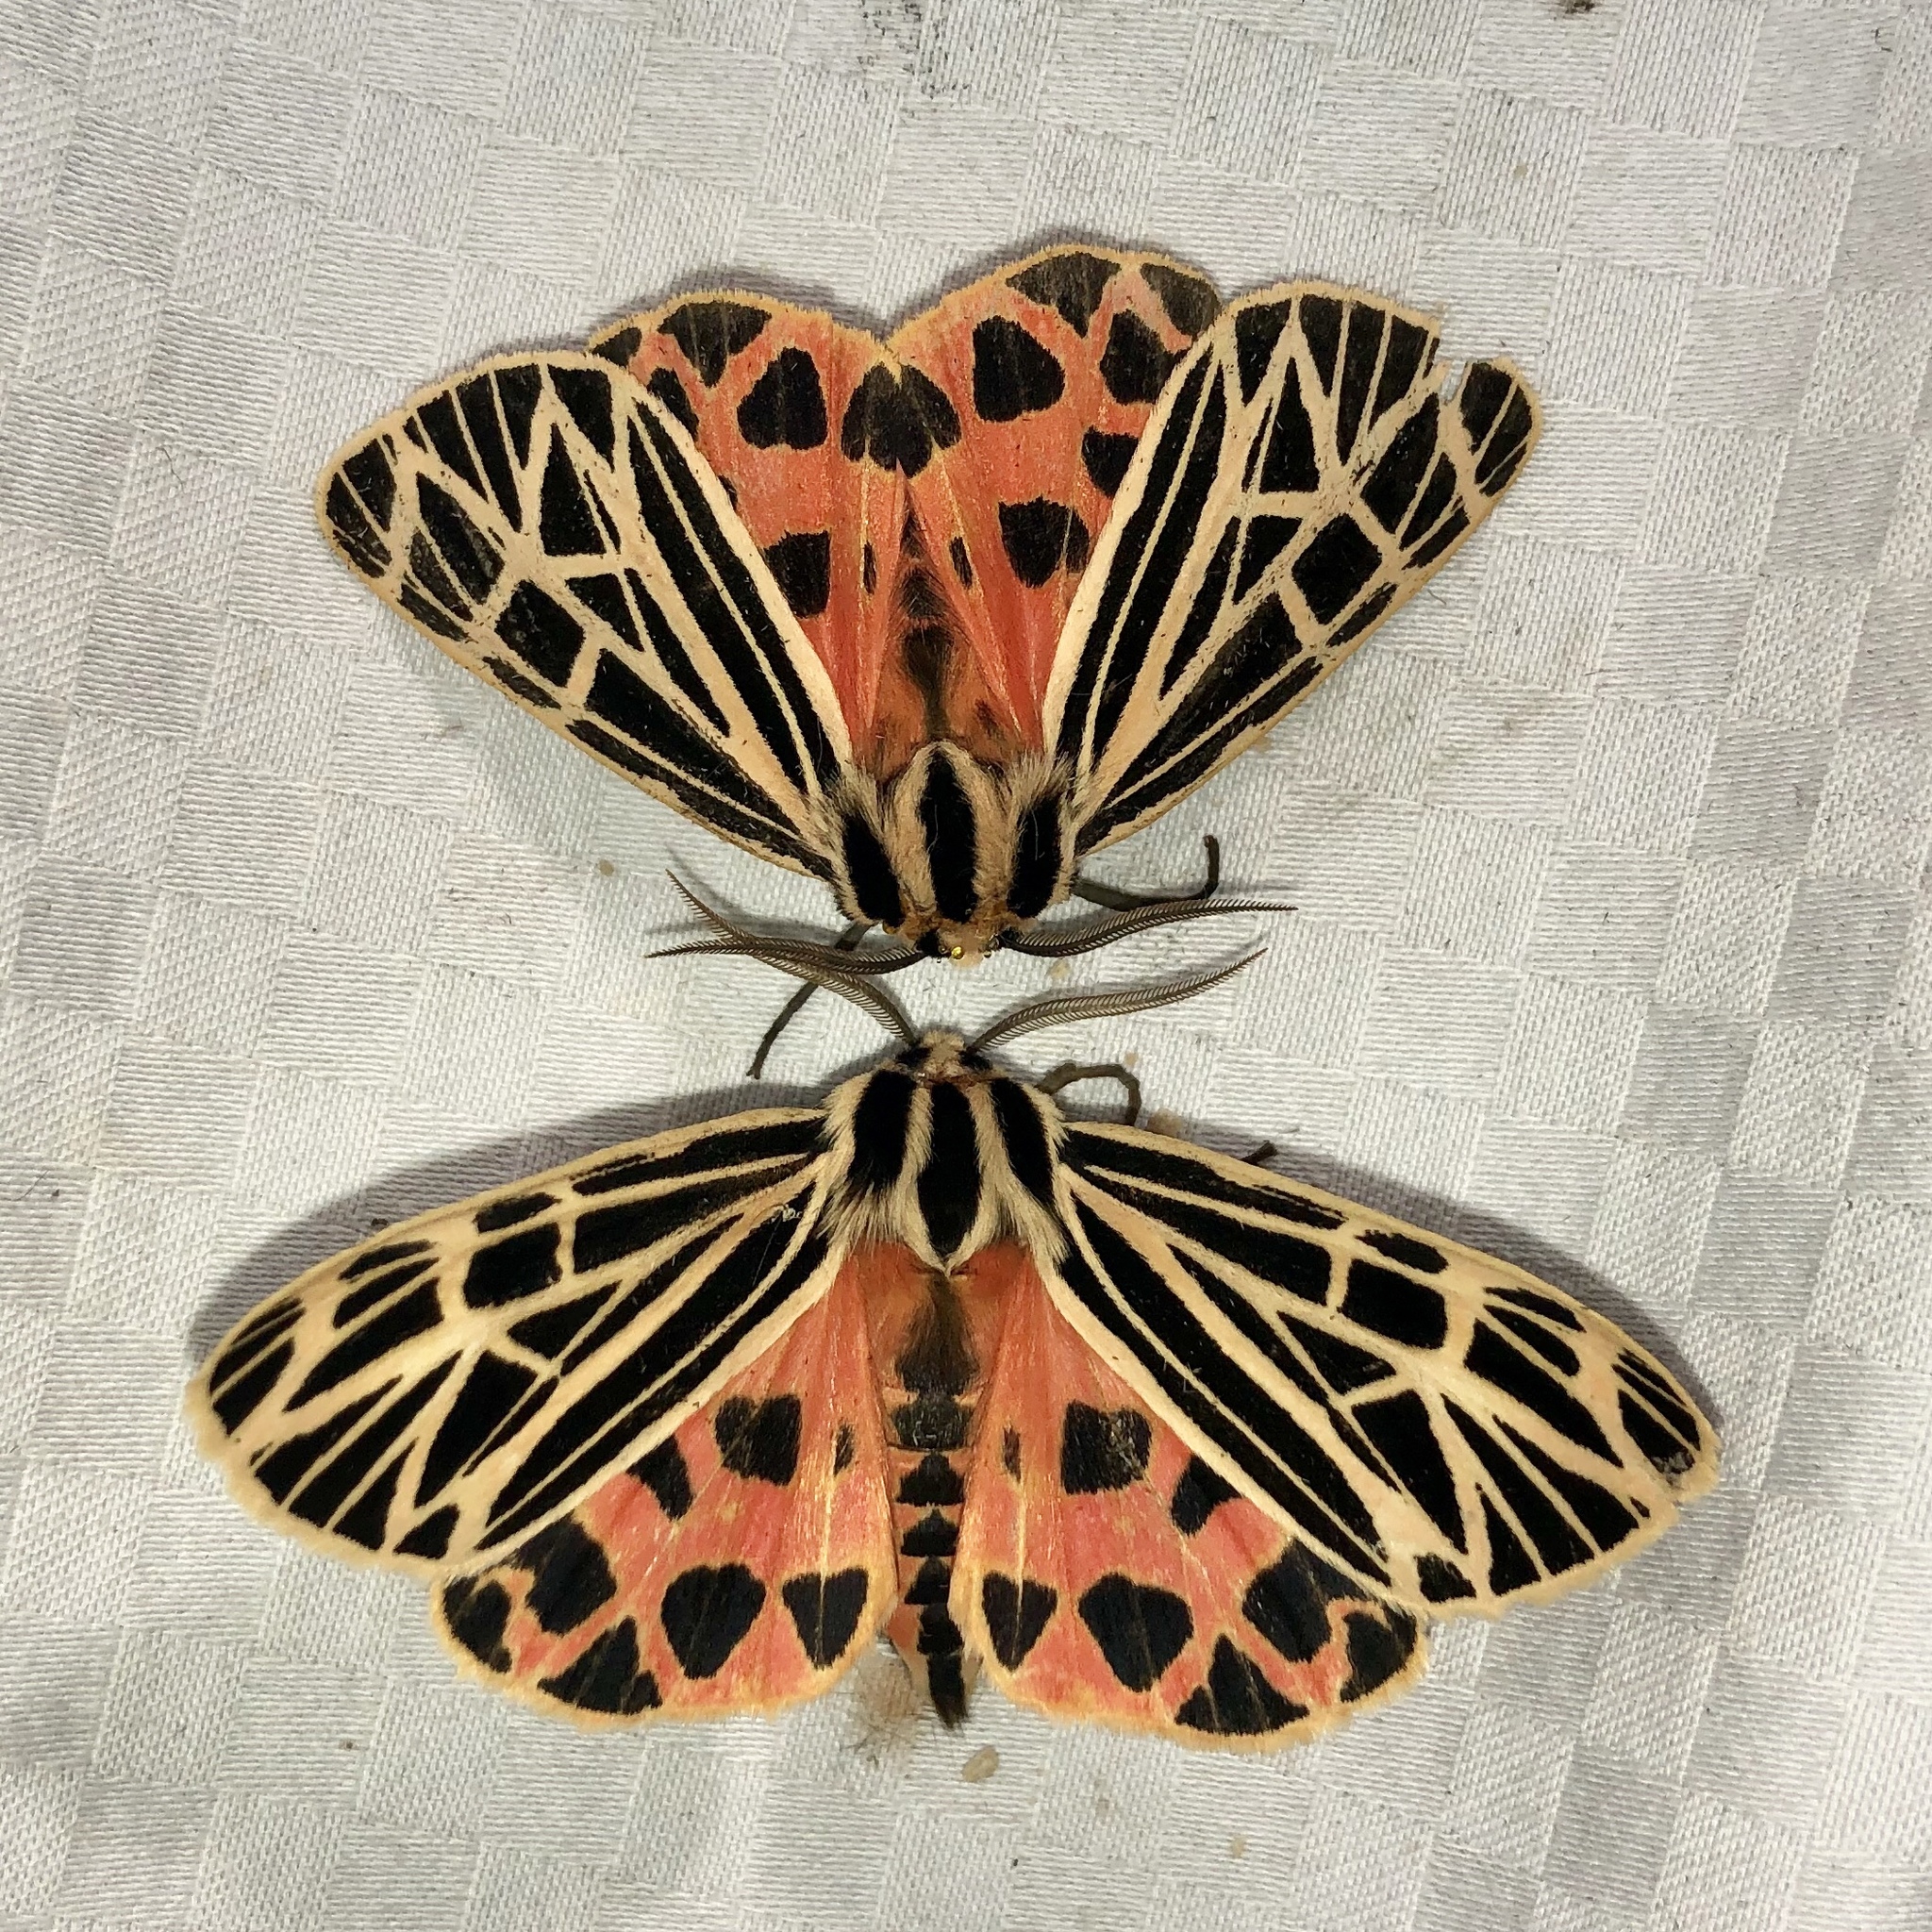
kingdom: Animalia
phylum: Arthropoda
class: Insecta
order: Lepidoptera
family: Erebidae
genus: Grammia
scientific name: Grammia virgo
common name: Virgin tiger moth
